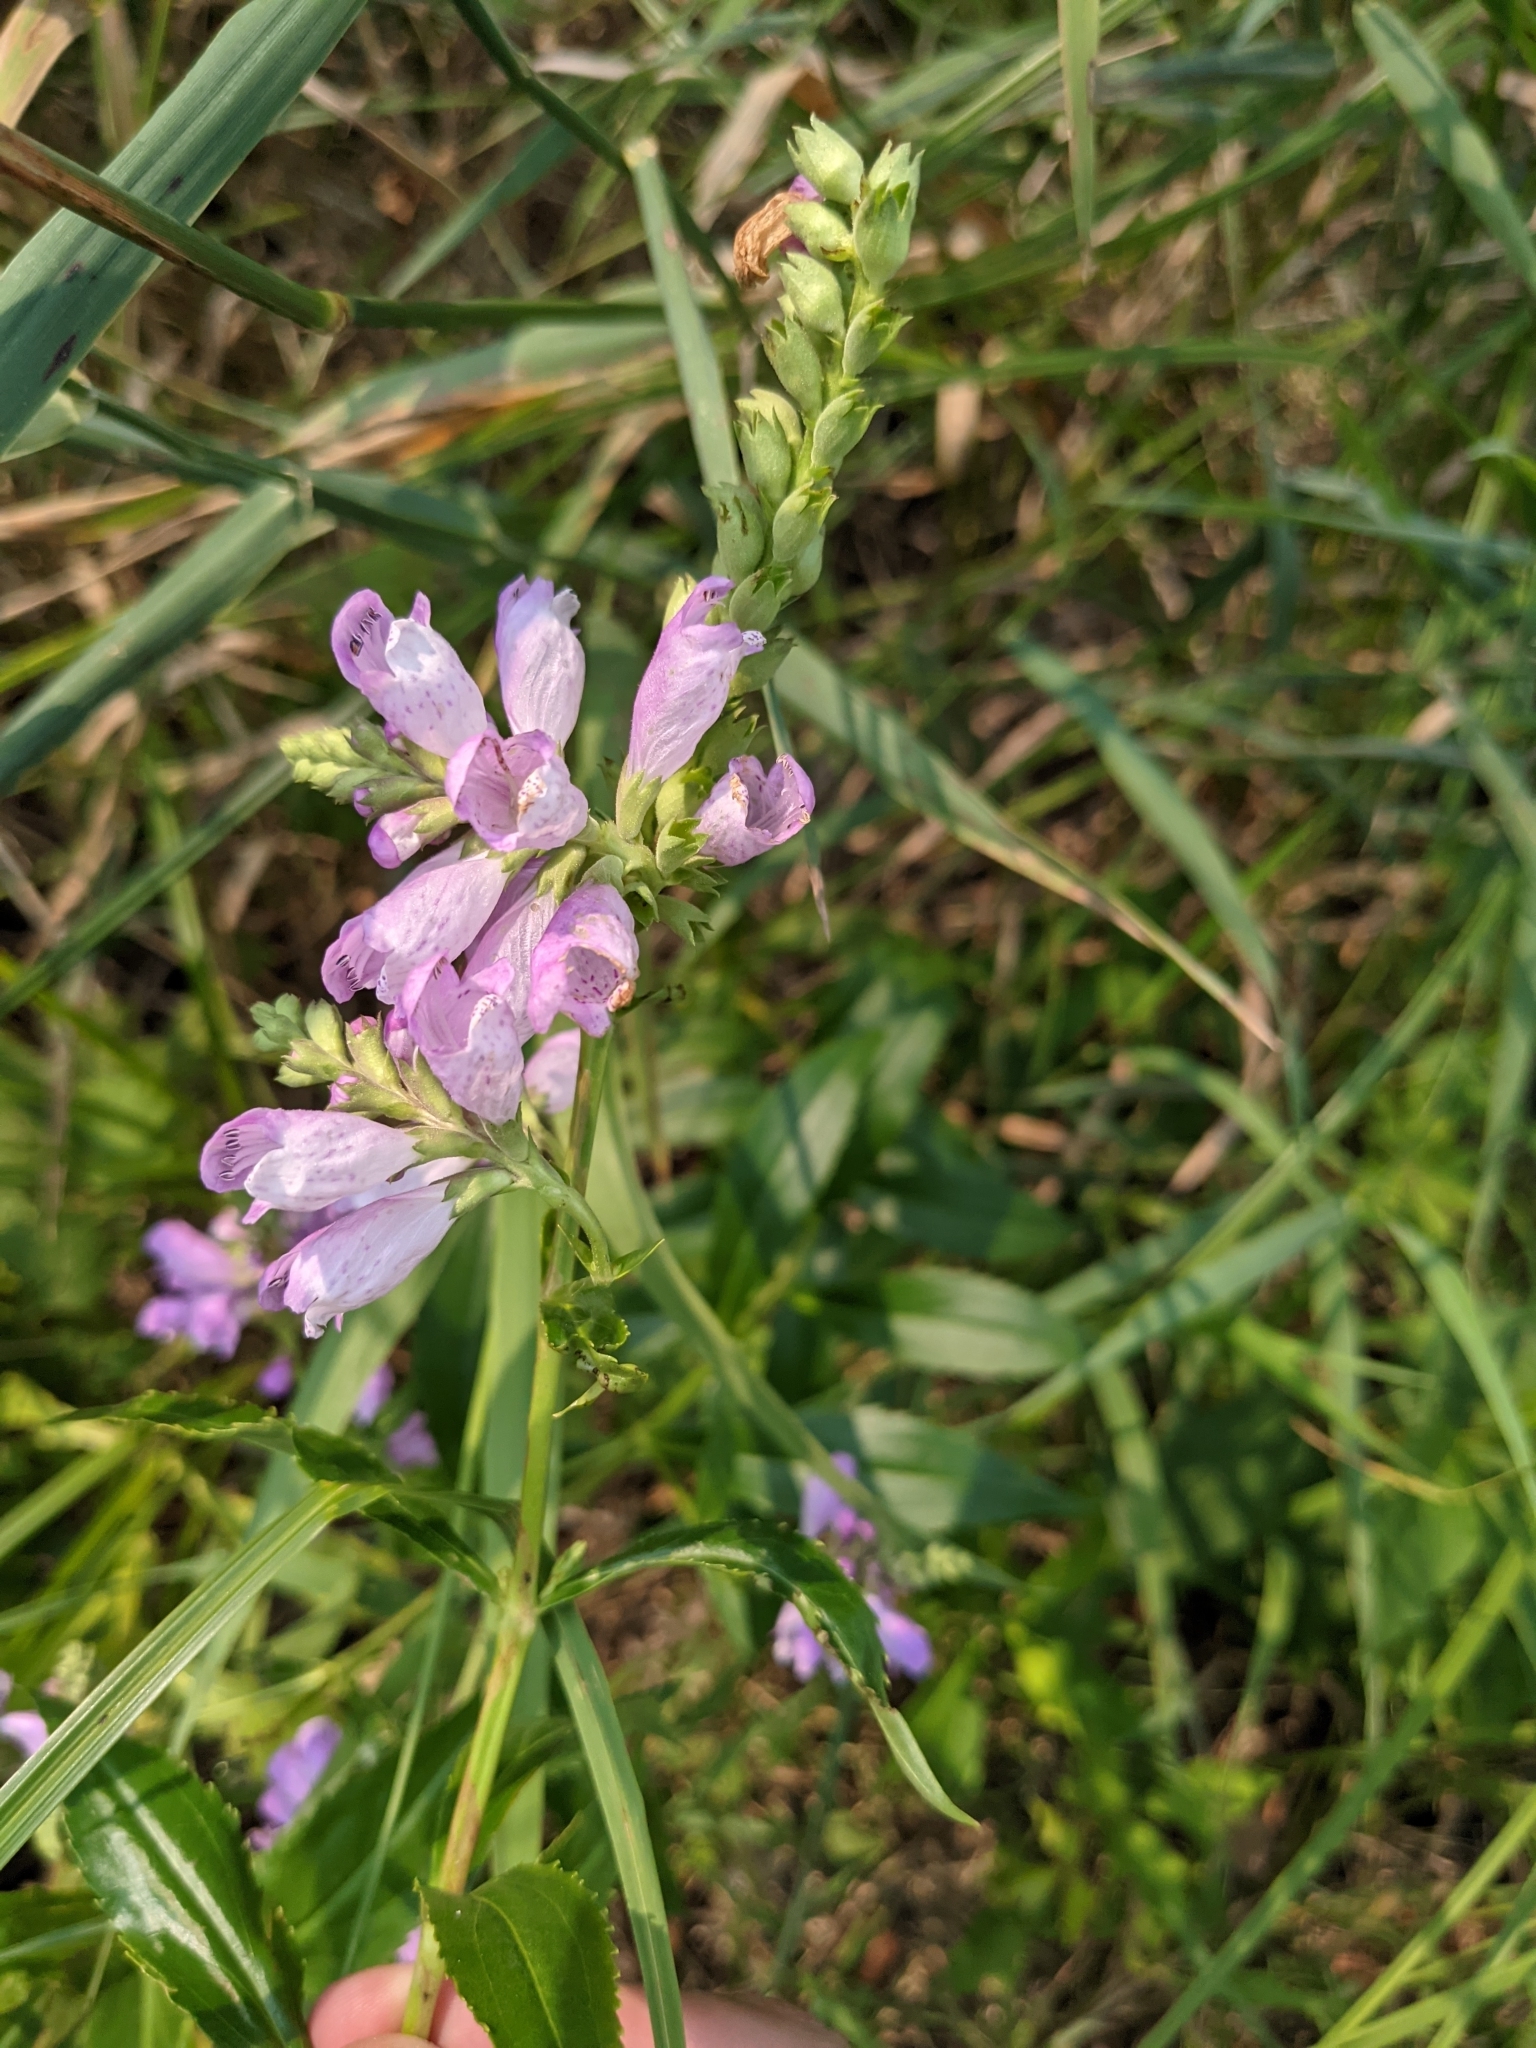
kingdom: Plantae
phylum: Tracheophyta
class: Magnoliopsida
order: Lamiales
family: Lamiaceae
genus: Physostegia
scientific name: Physostegia virginiana
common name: Obedient-plant
